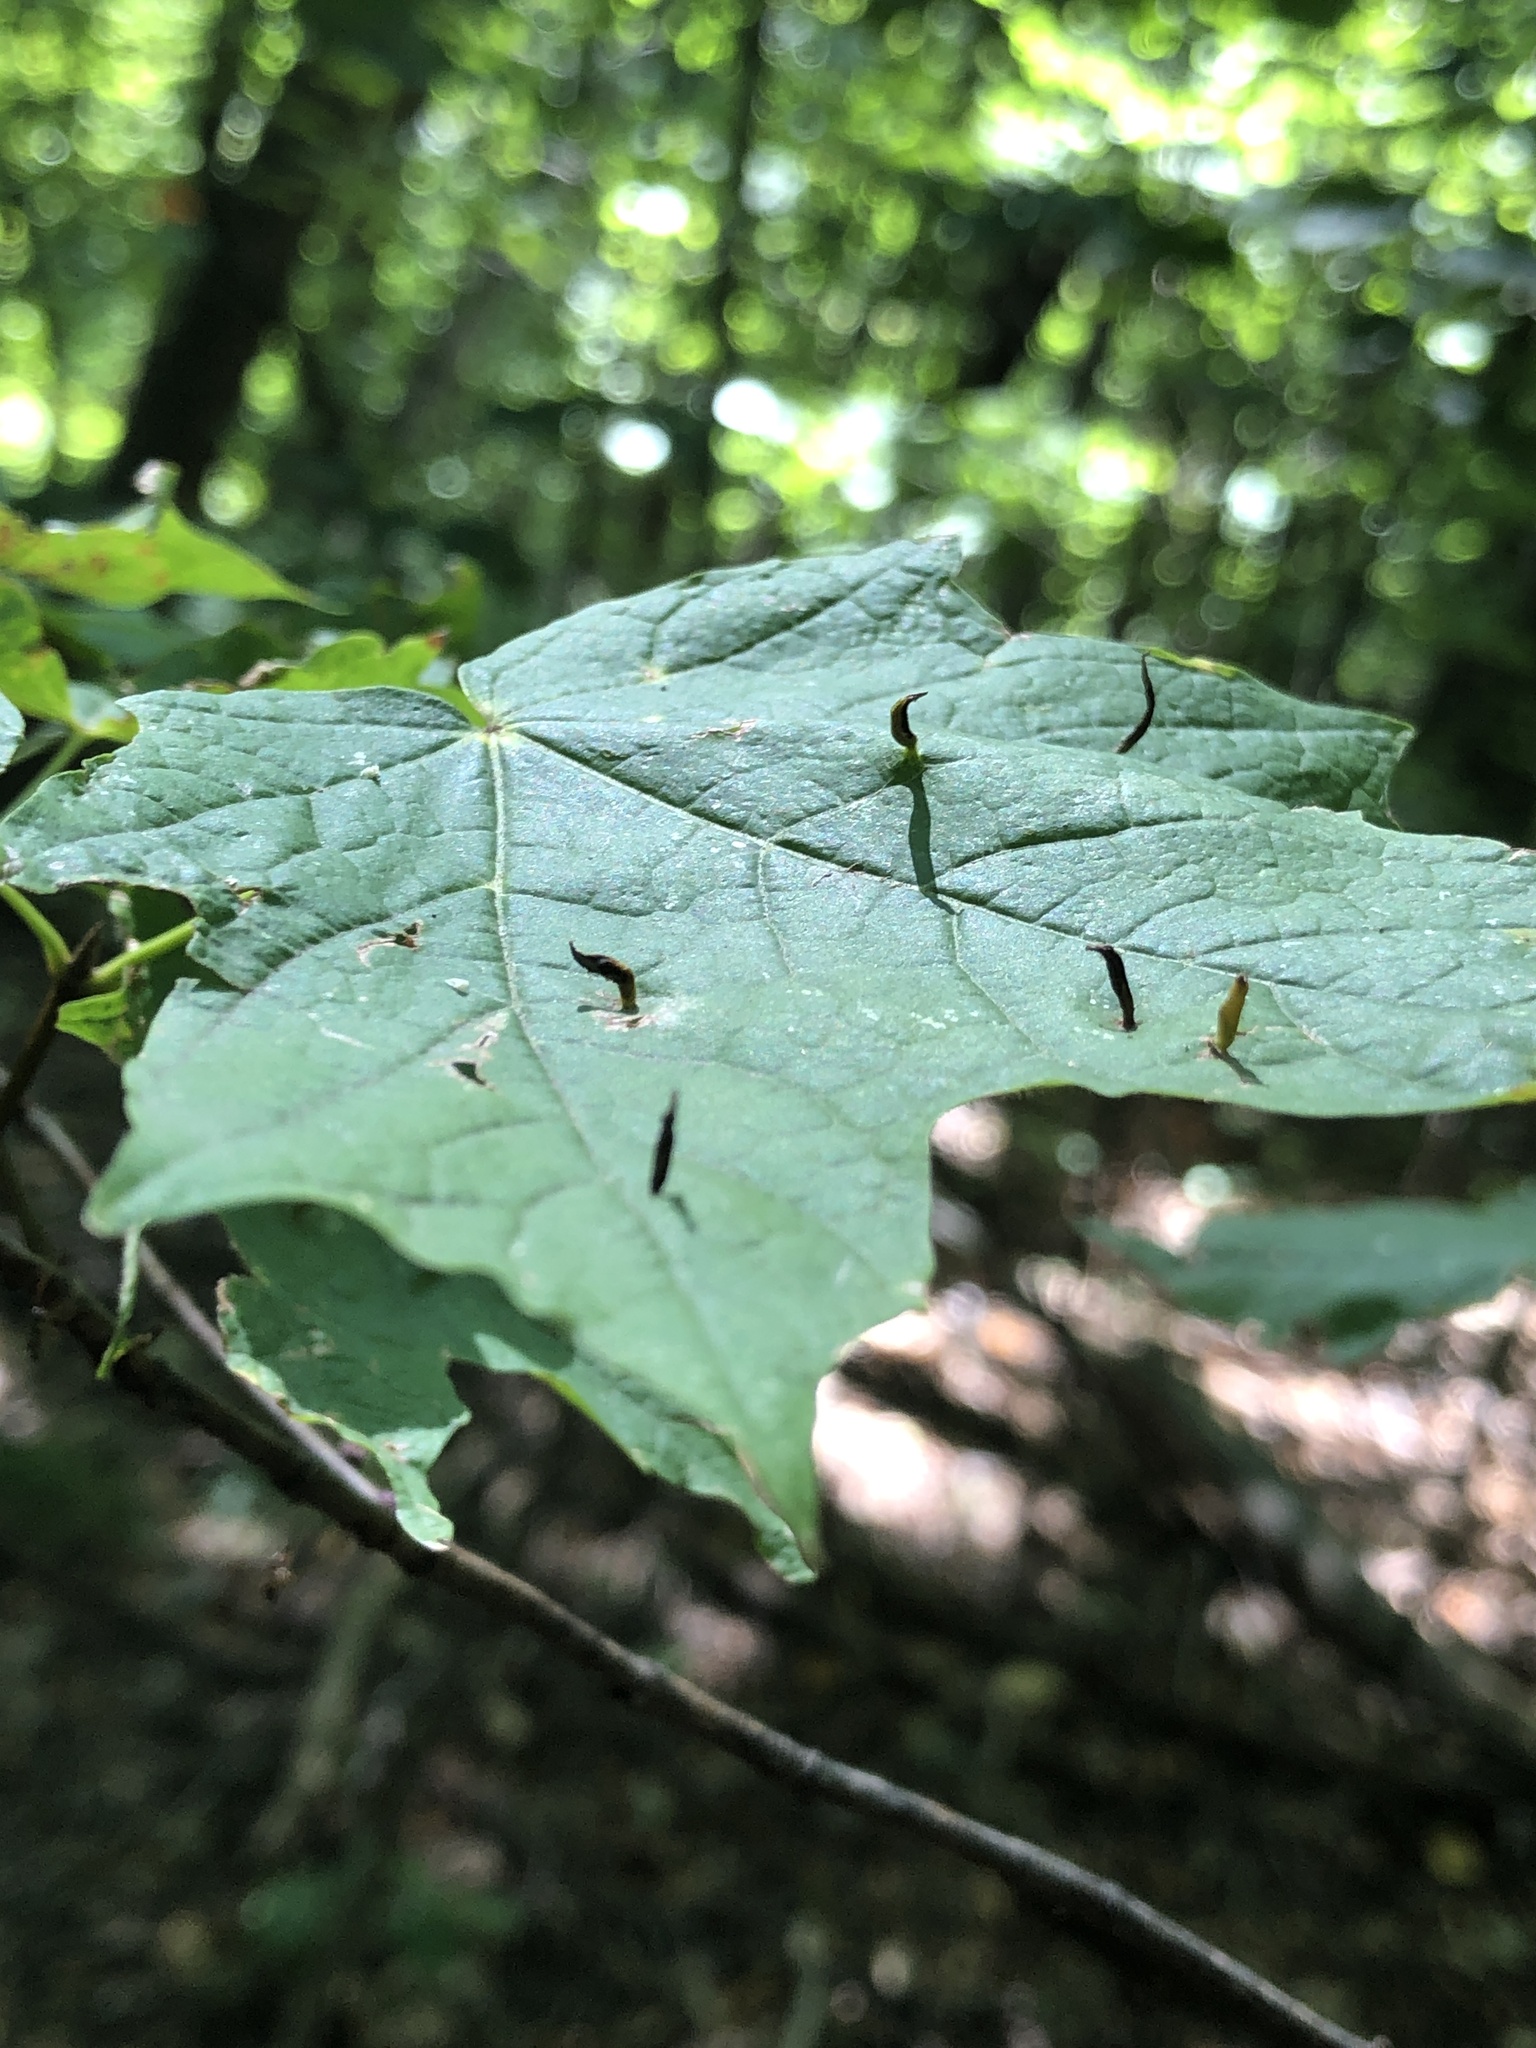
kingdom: Animalia
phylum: Arthropoda
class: Arachnida
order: Trombidiformes
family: Eriophyidae
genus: Vasates
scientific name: Vasates aceriscrumena
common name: Maple spindle gall mite
